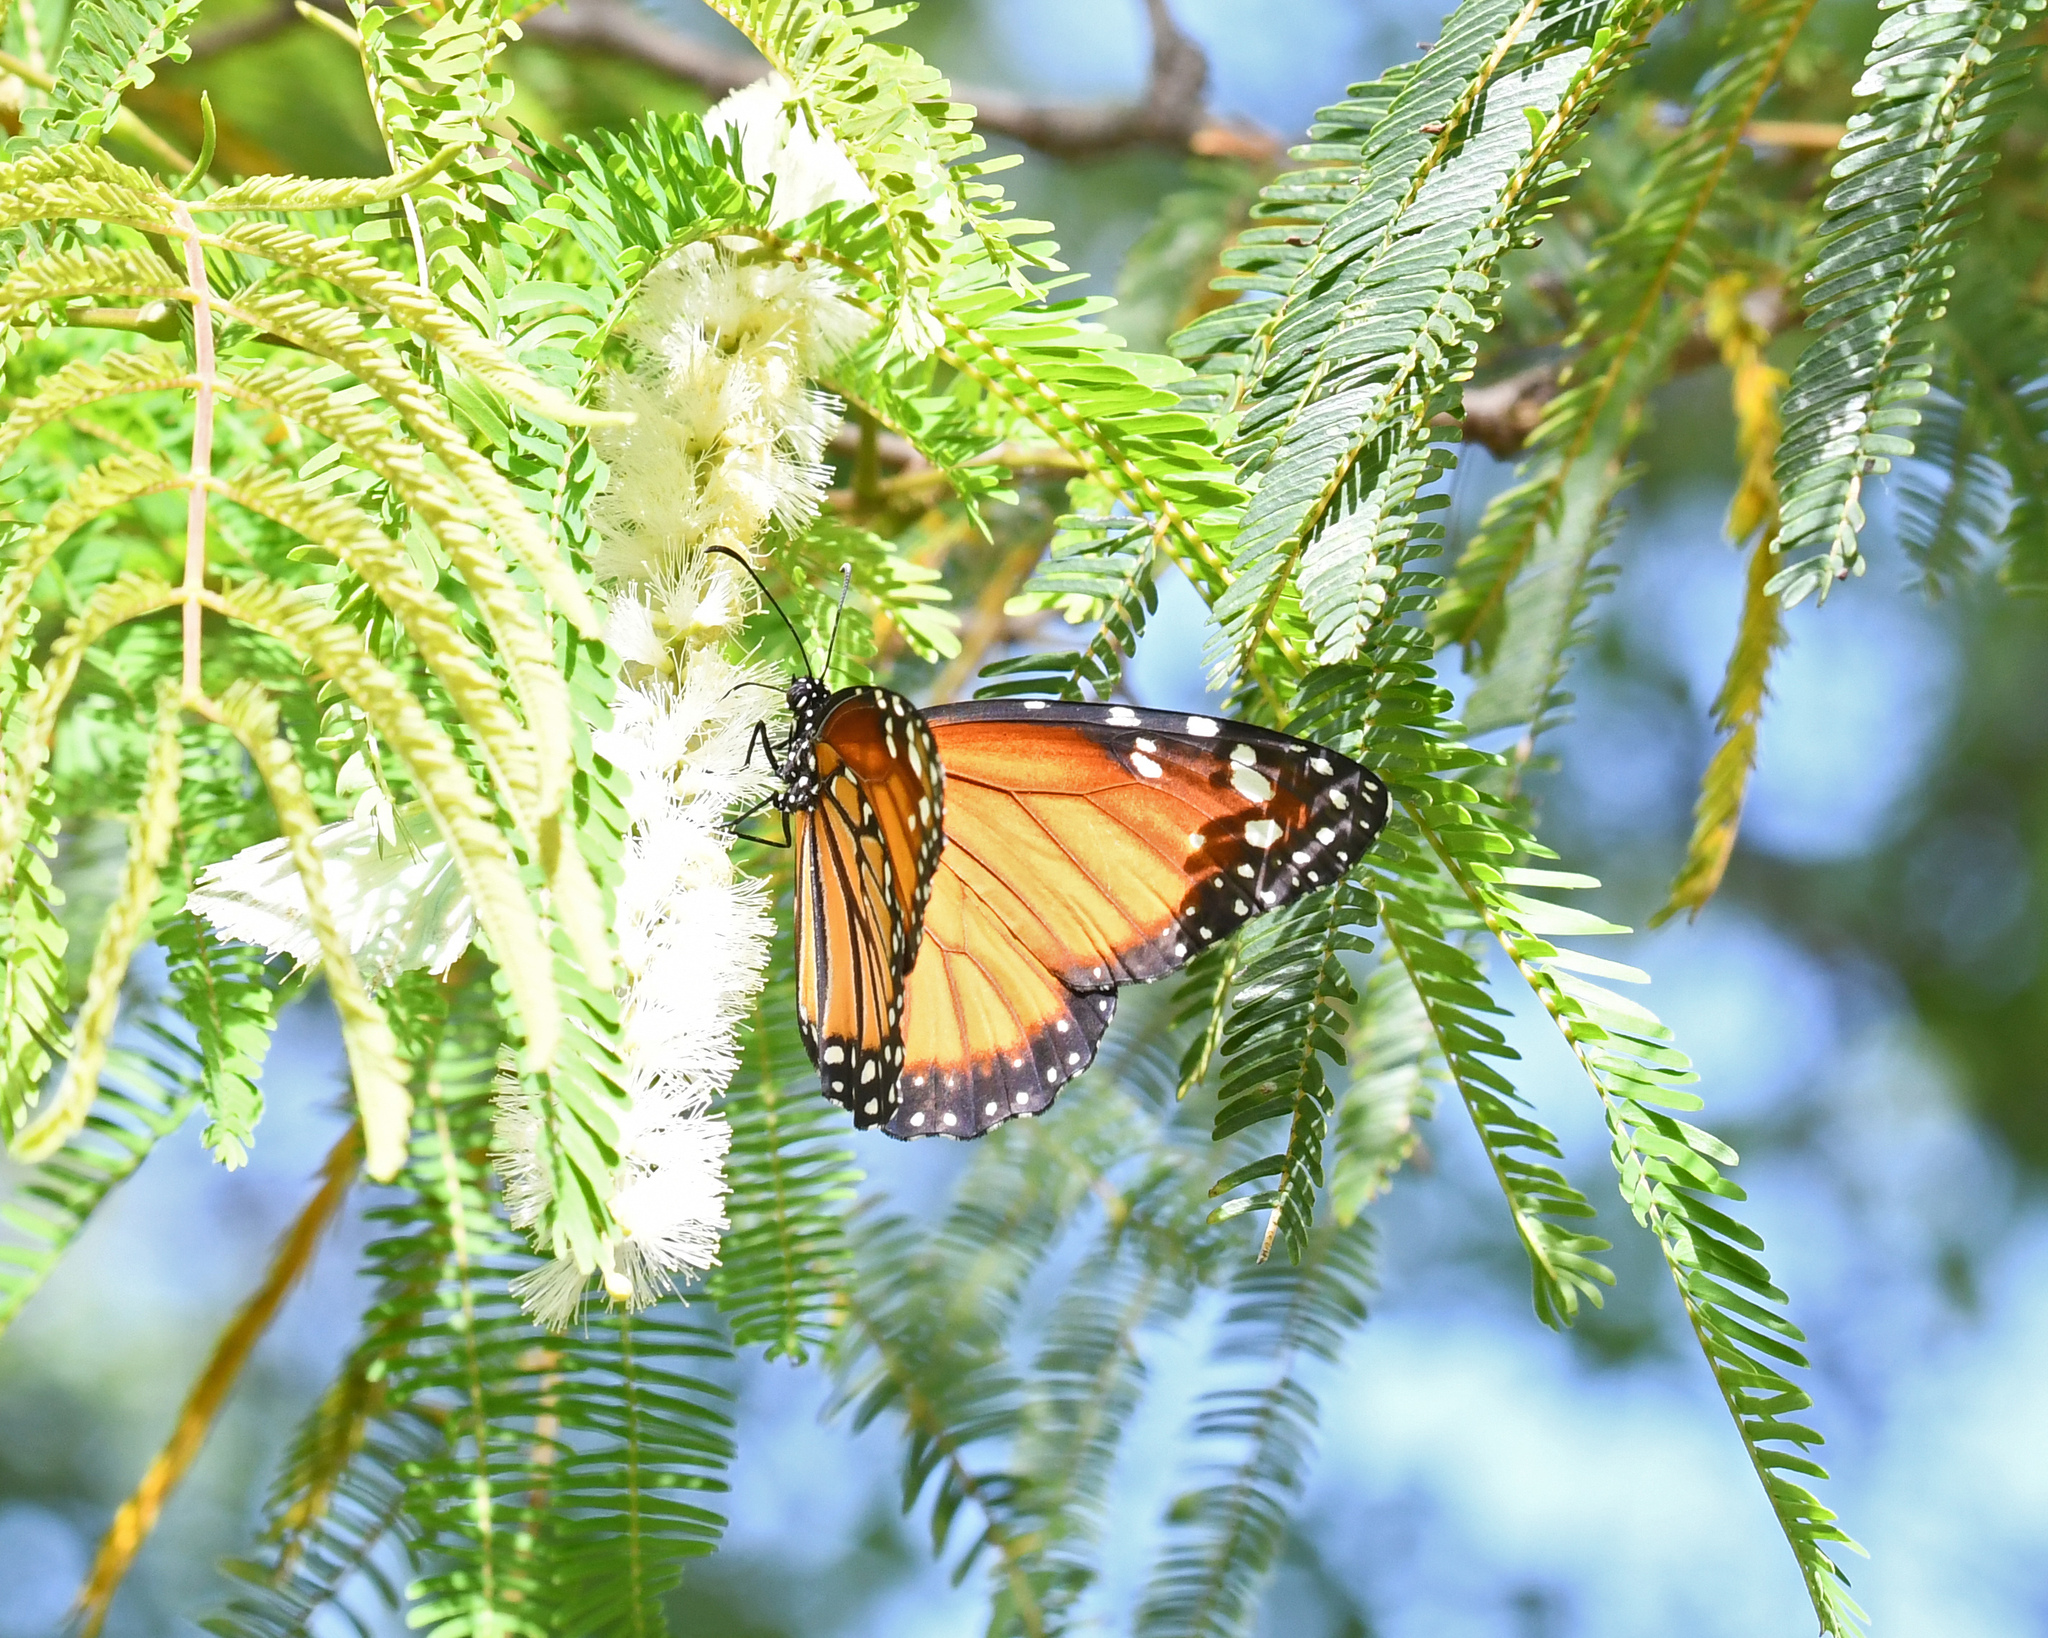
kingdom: Animalia
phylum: Arthropoda
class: Insecta
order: Lepidoptera
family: Nymphalidae
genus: Danaus
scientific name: Danaus gilippus
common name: Queen
